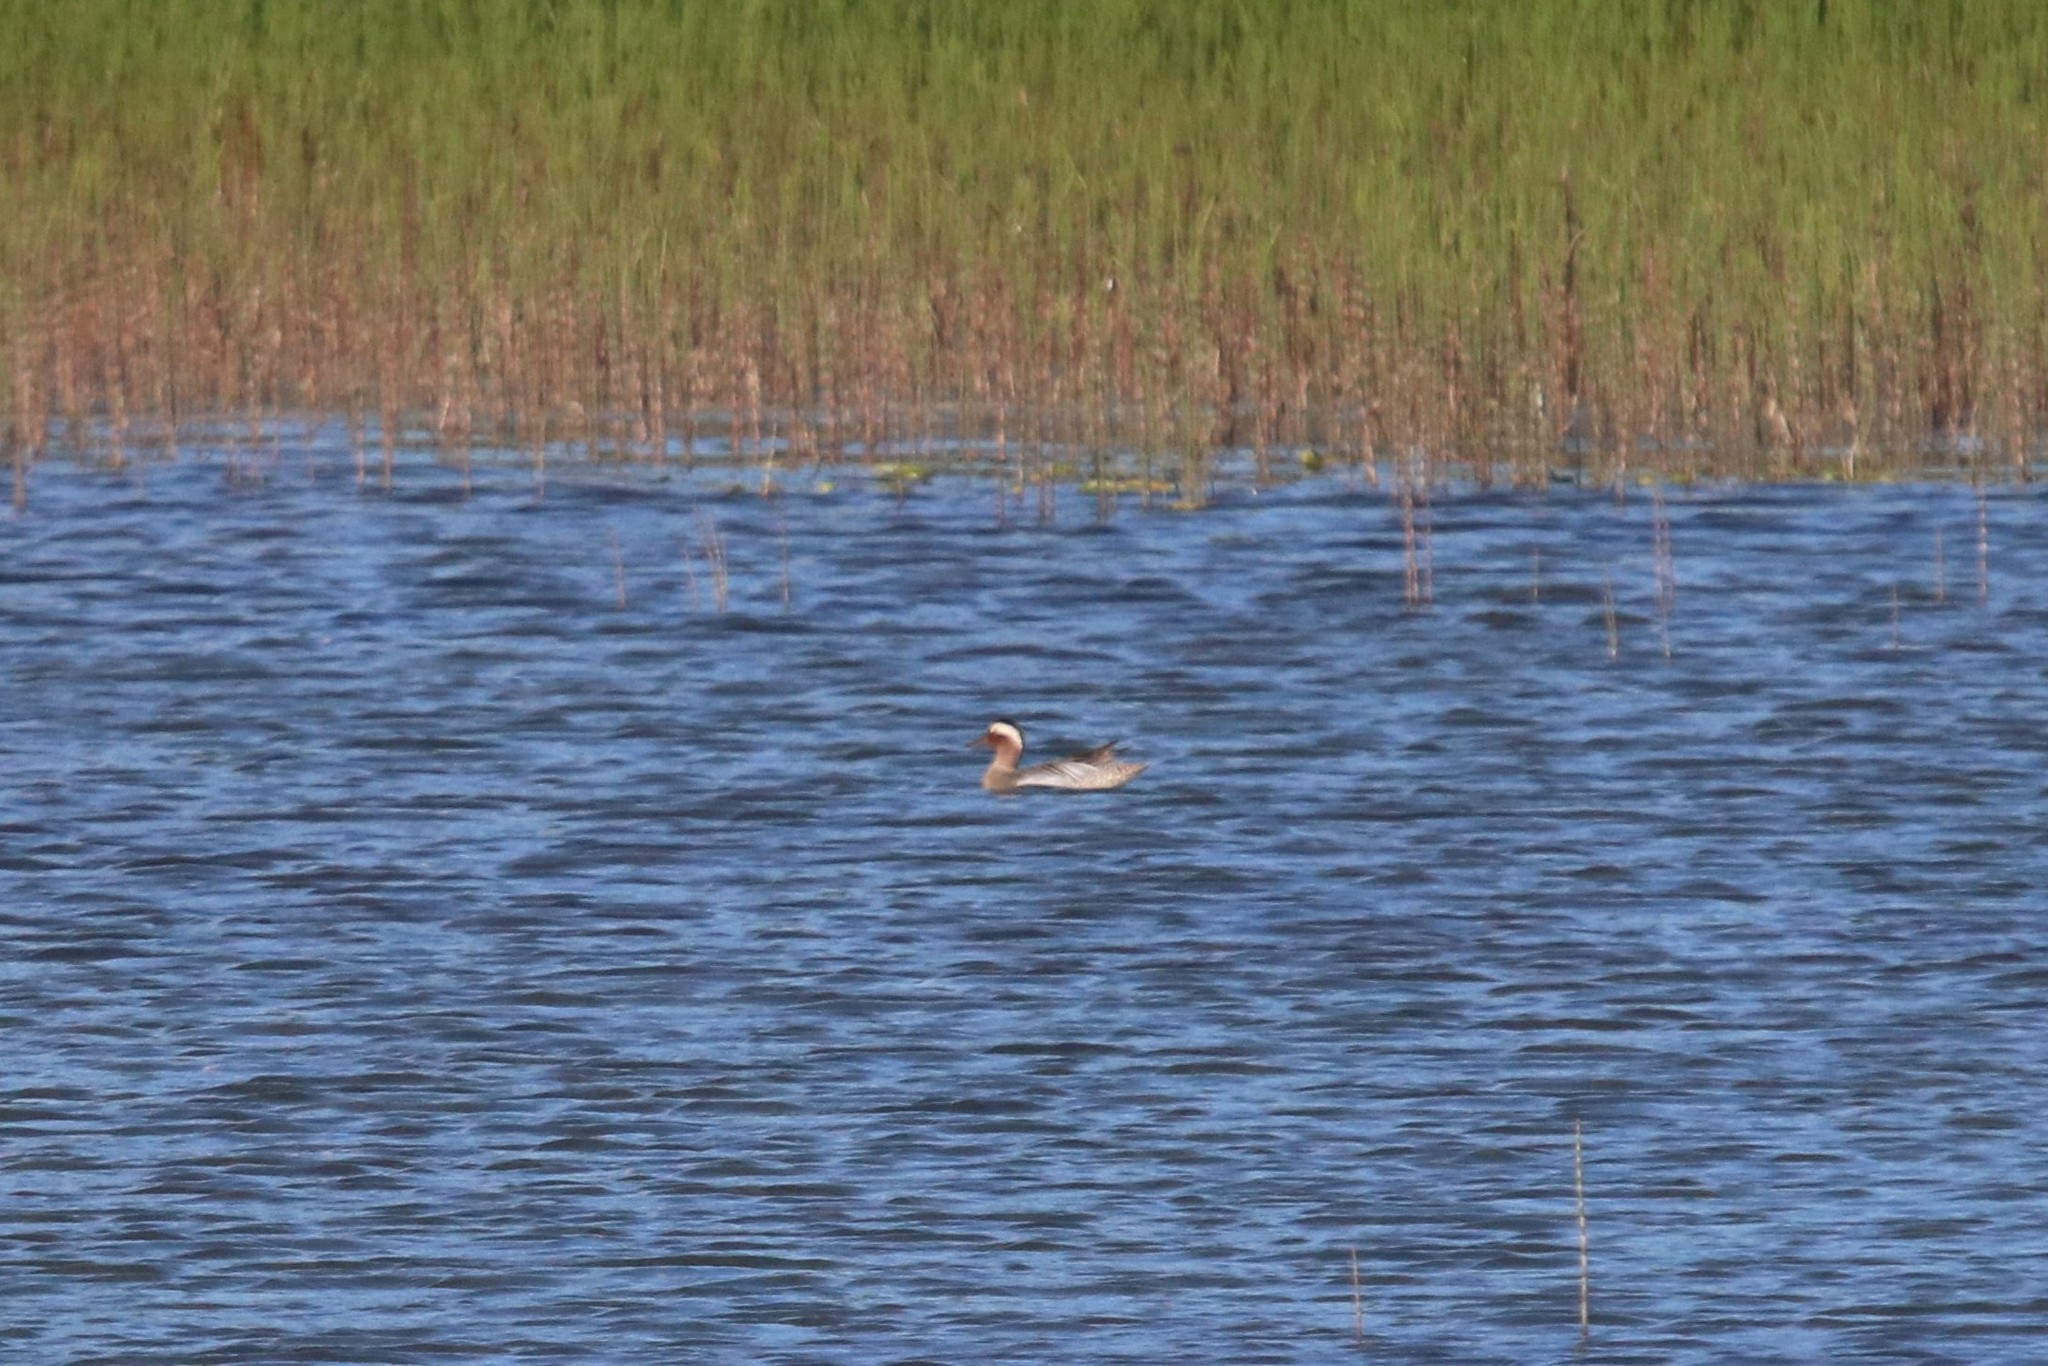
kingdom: Animalia
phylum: Chordata
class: Aves
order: Anseriformes
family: Anatidae
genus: Spatula
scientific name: Spatula querquedula
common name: Garganey
